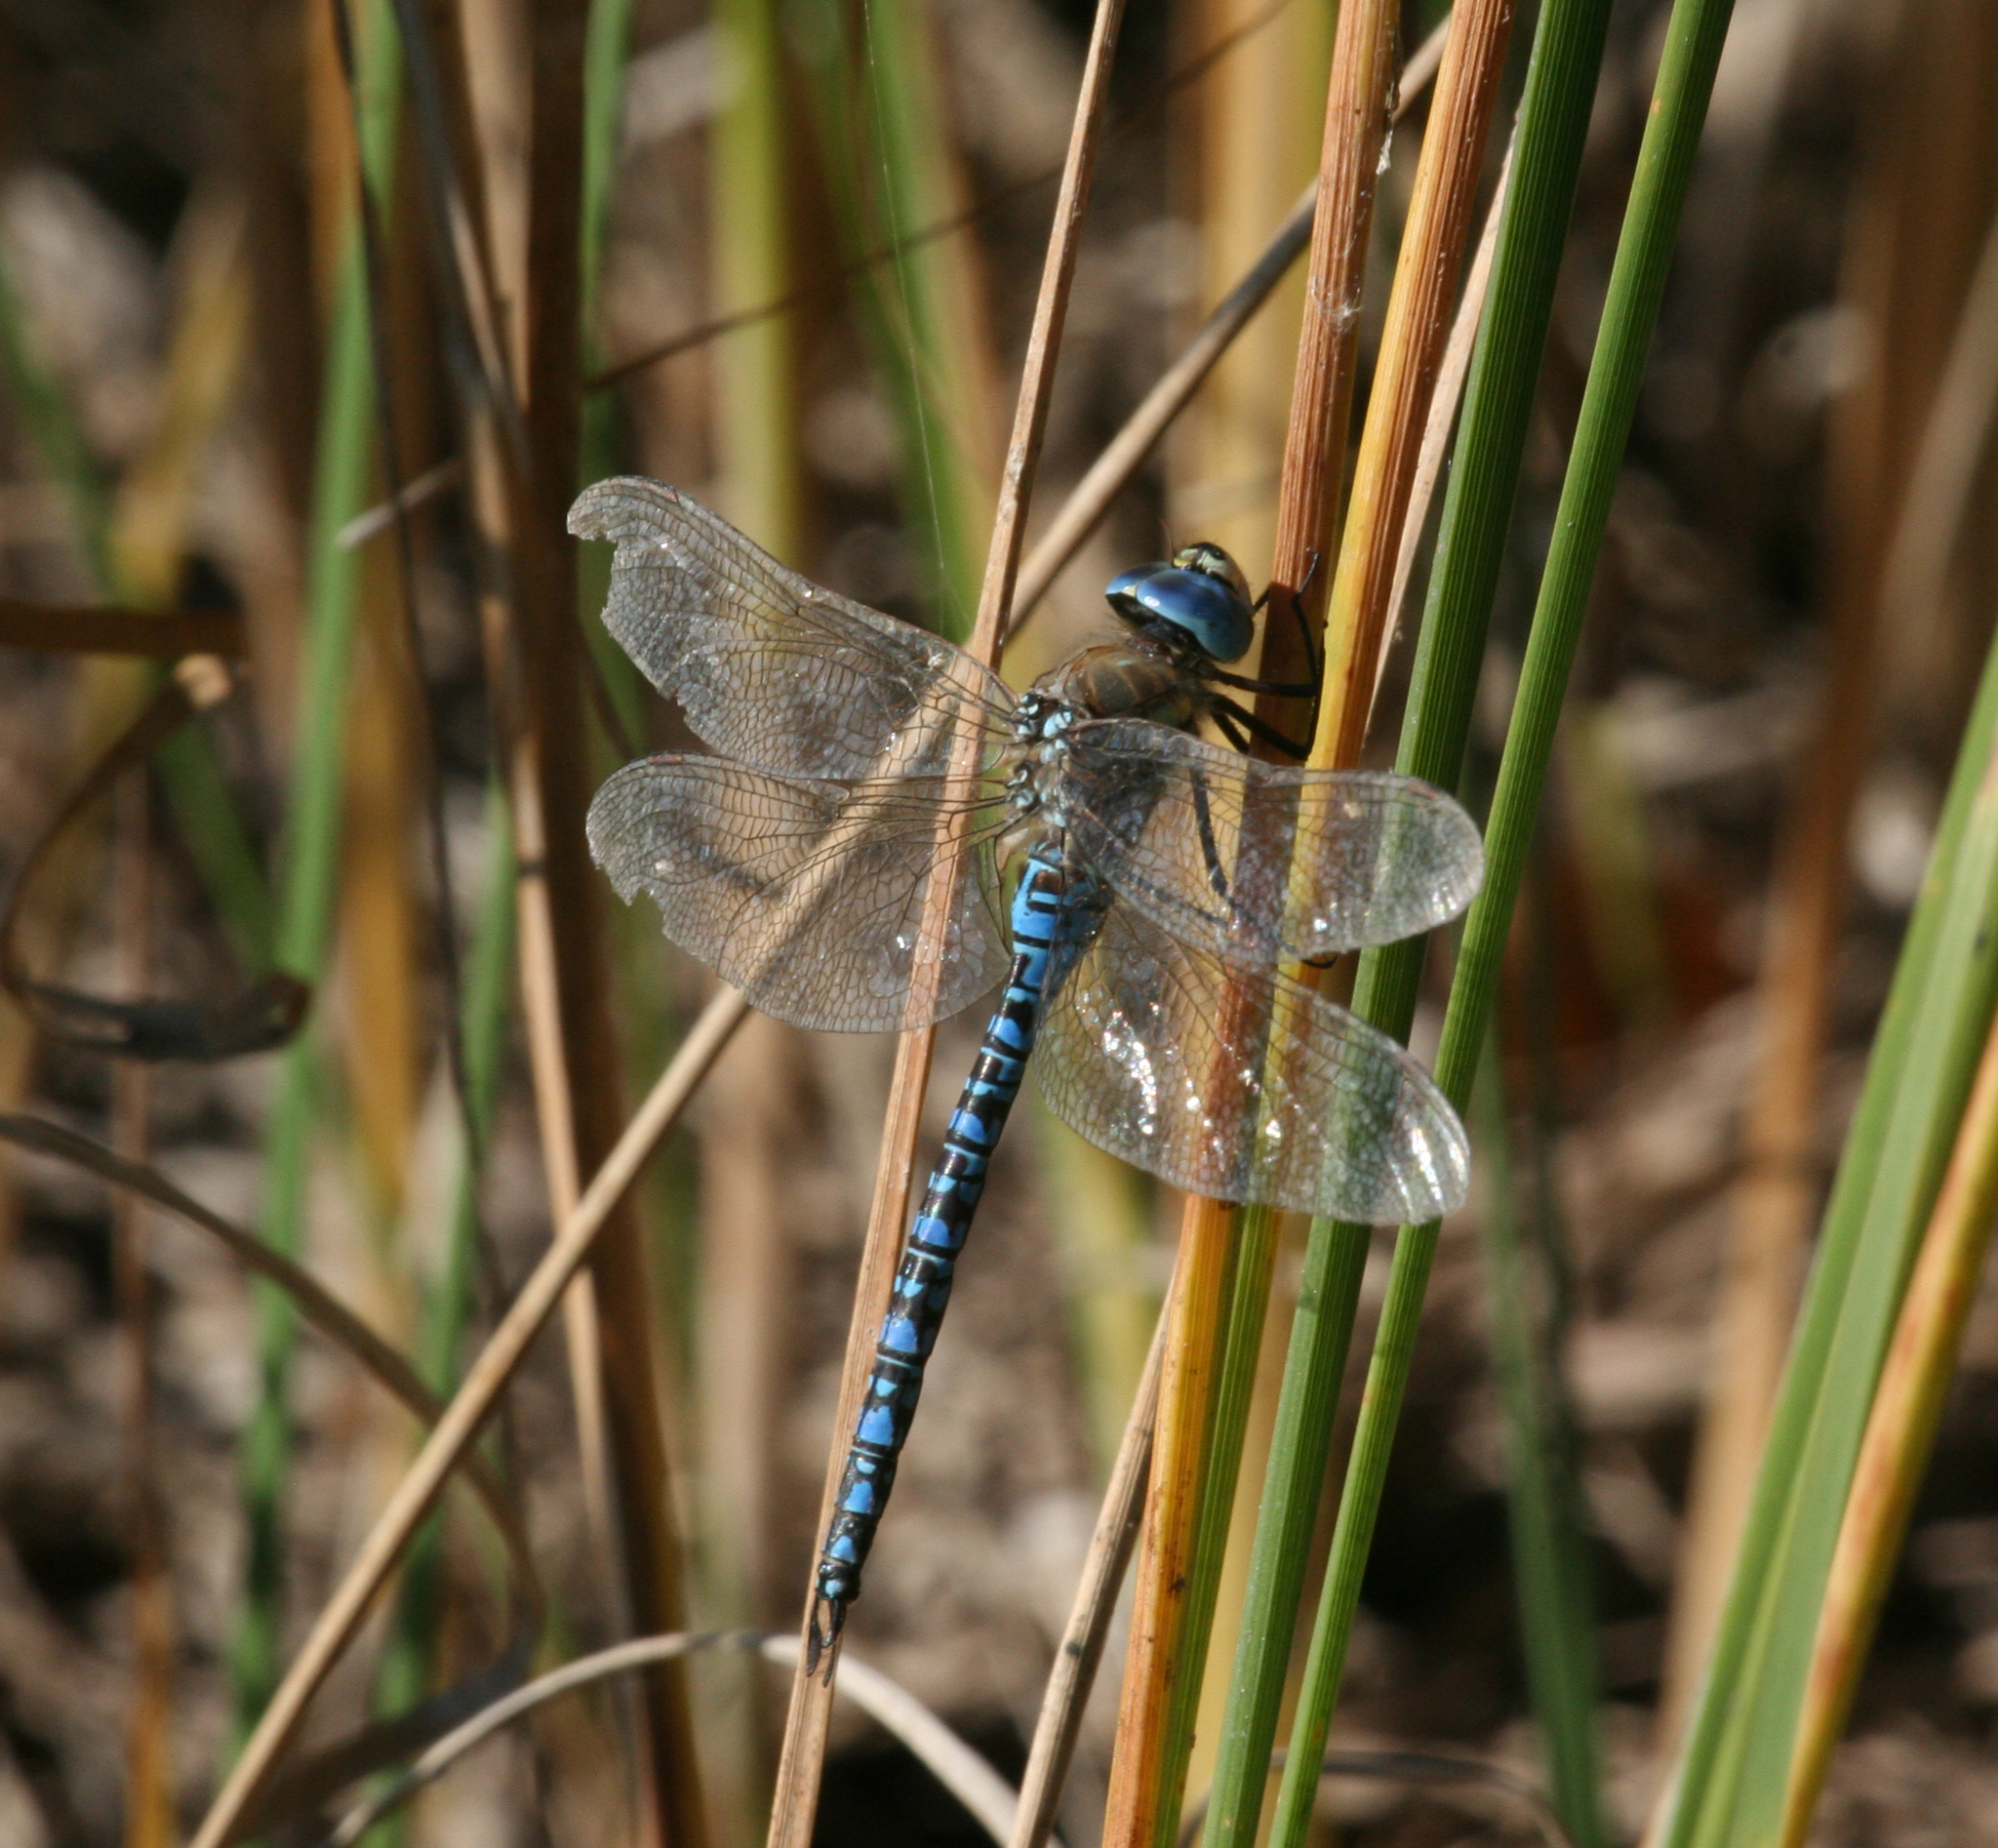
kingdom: Animalia
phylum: Arthropoda
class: Insecta
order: Odonata
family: Aeshnidae
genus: Aeshna
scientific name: Aeshna soneharai
